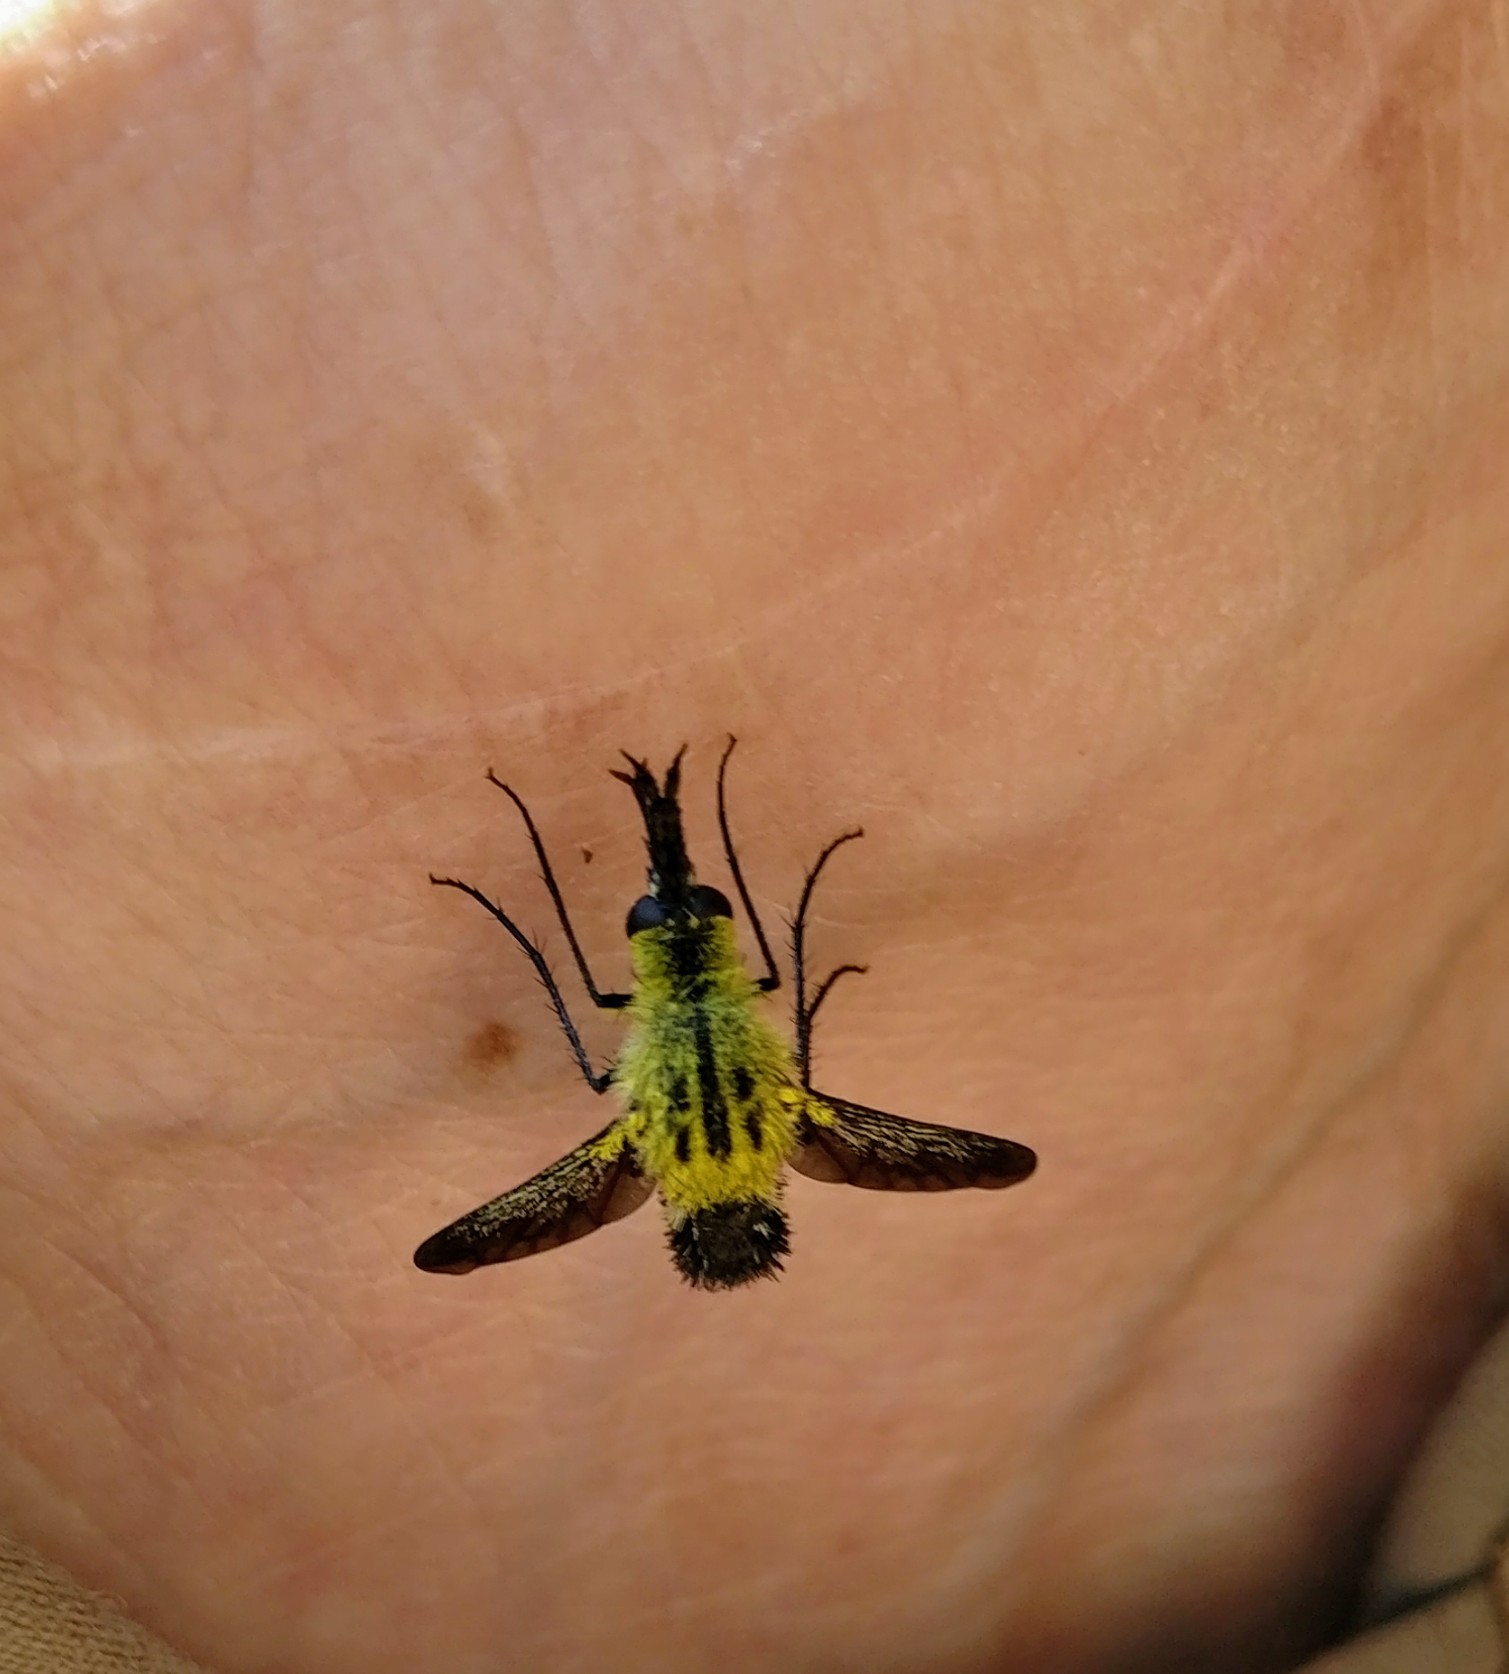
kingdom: Animalia
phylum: Arthropoda
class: Insecta
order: Diptera
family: Bombyliidae
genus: Lepidophora
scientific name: Lepidophora lutea
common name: Hunchback bee fly
